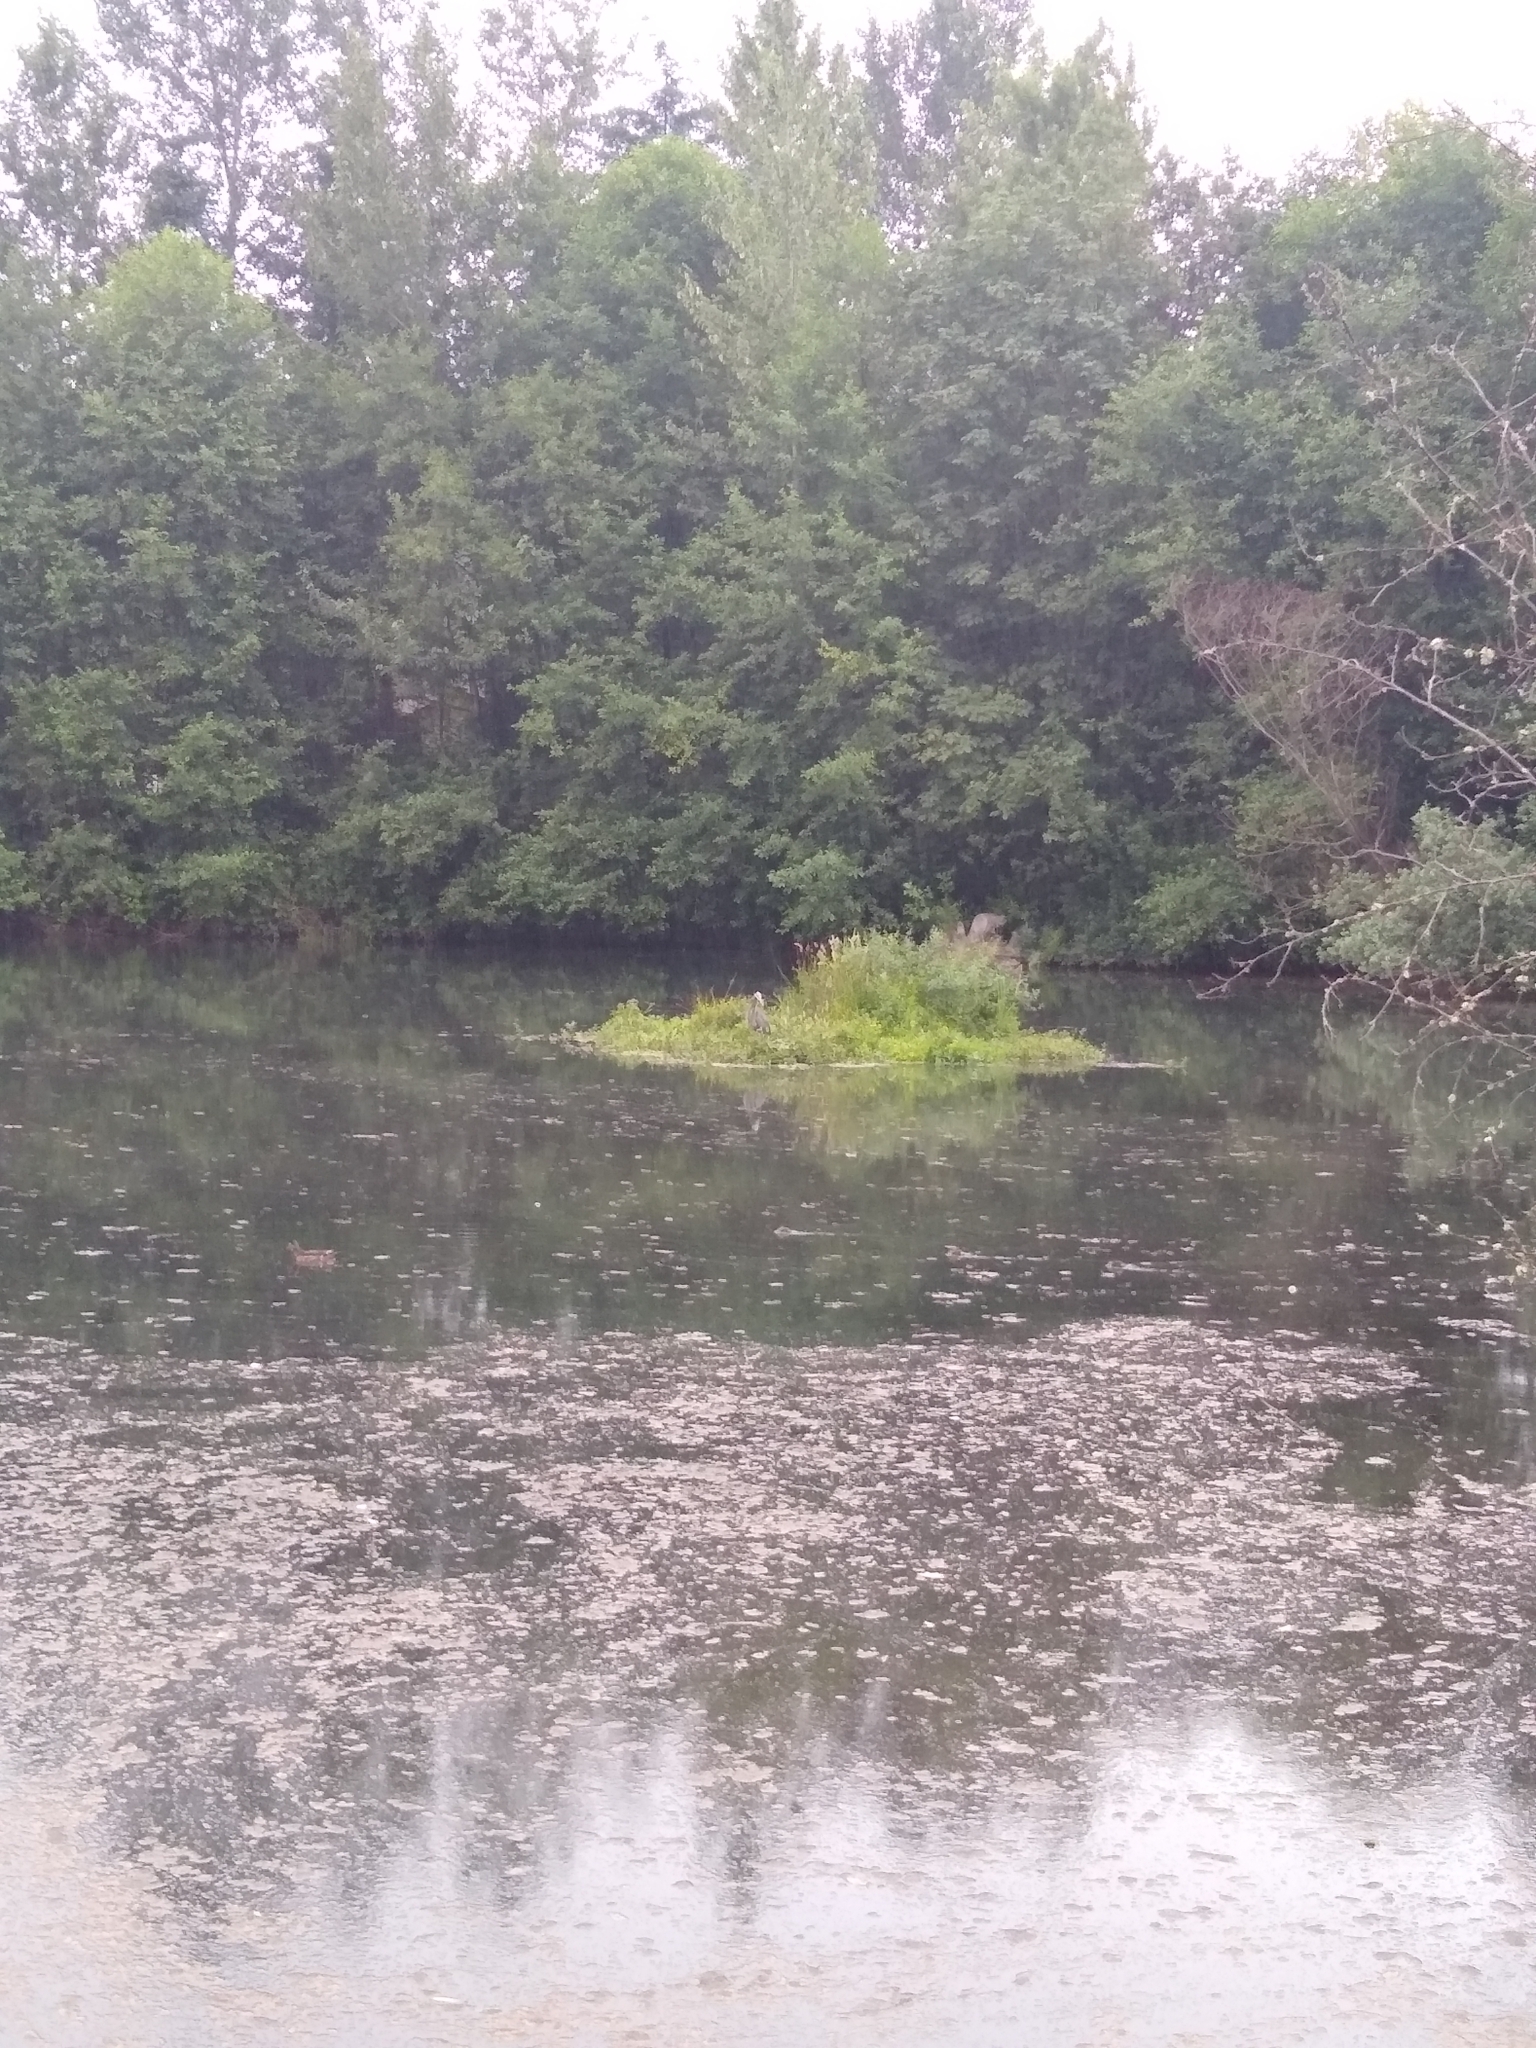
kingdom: Animalia
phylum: Chordata
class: Aves
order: Pelecaniformes
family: Ardeidae
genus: Ardea
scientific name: Ardea herodias
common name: Great blue heron
